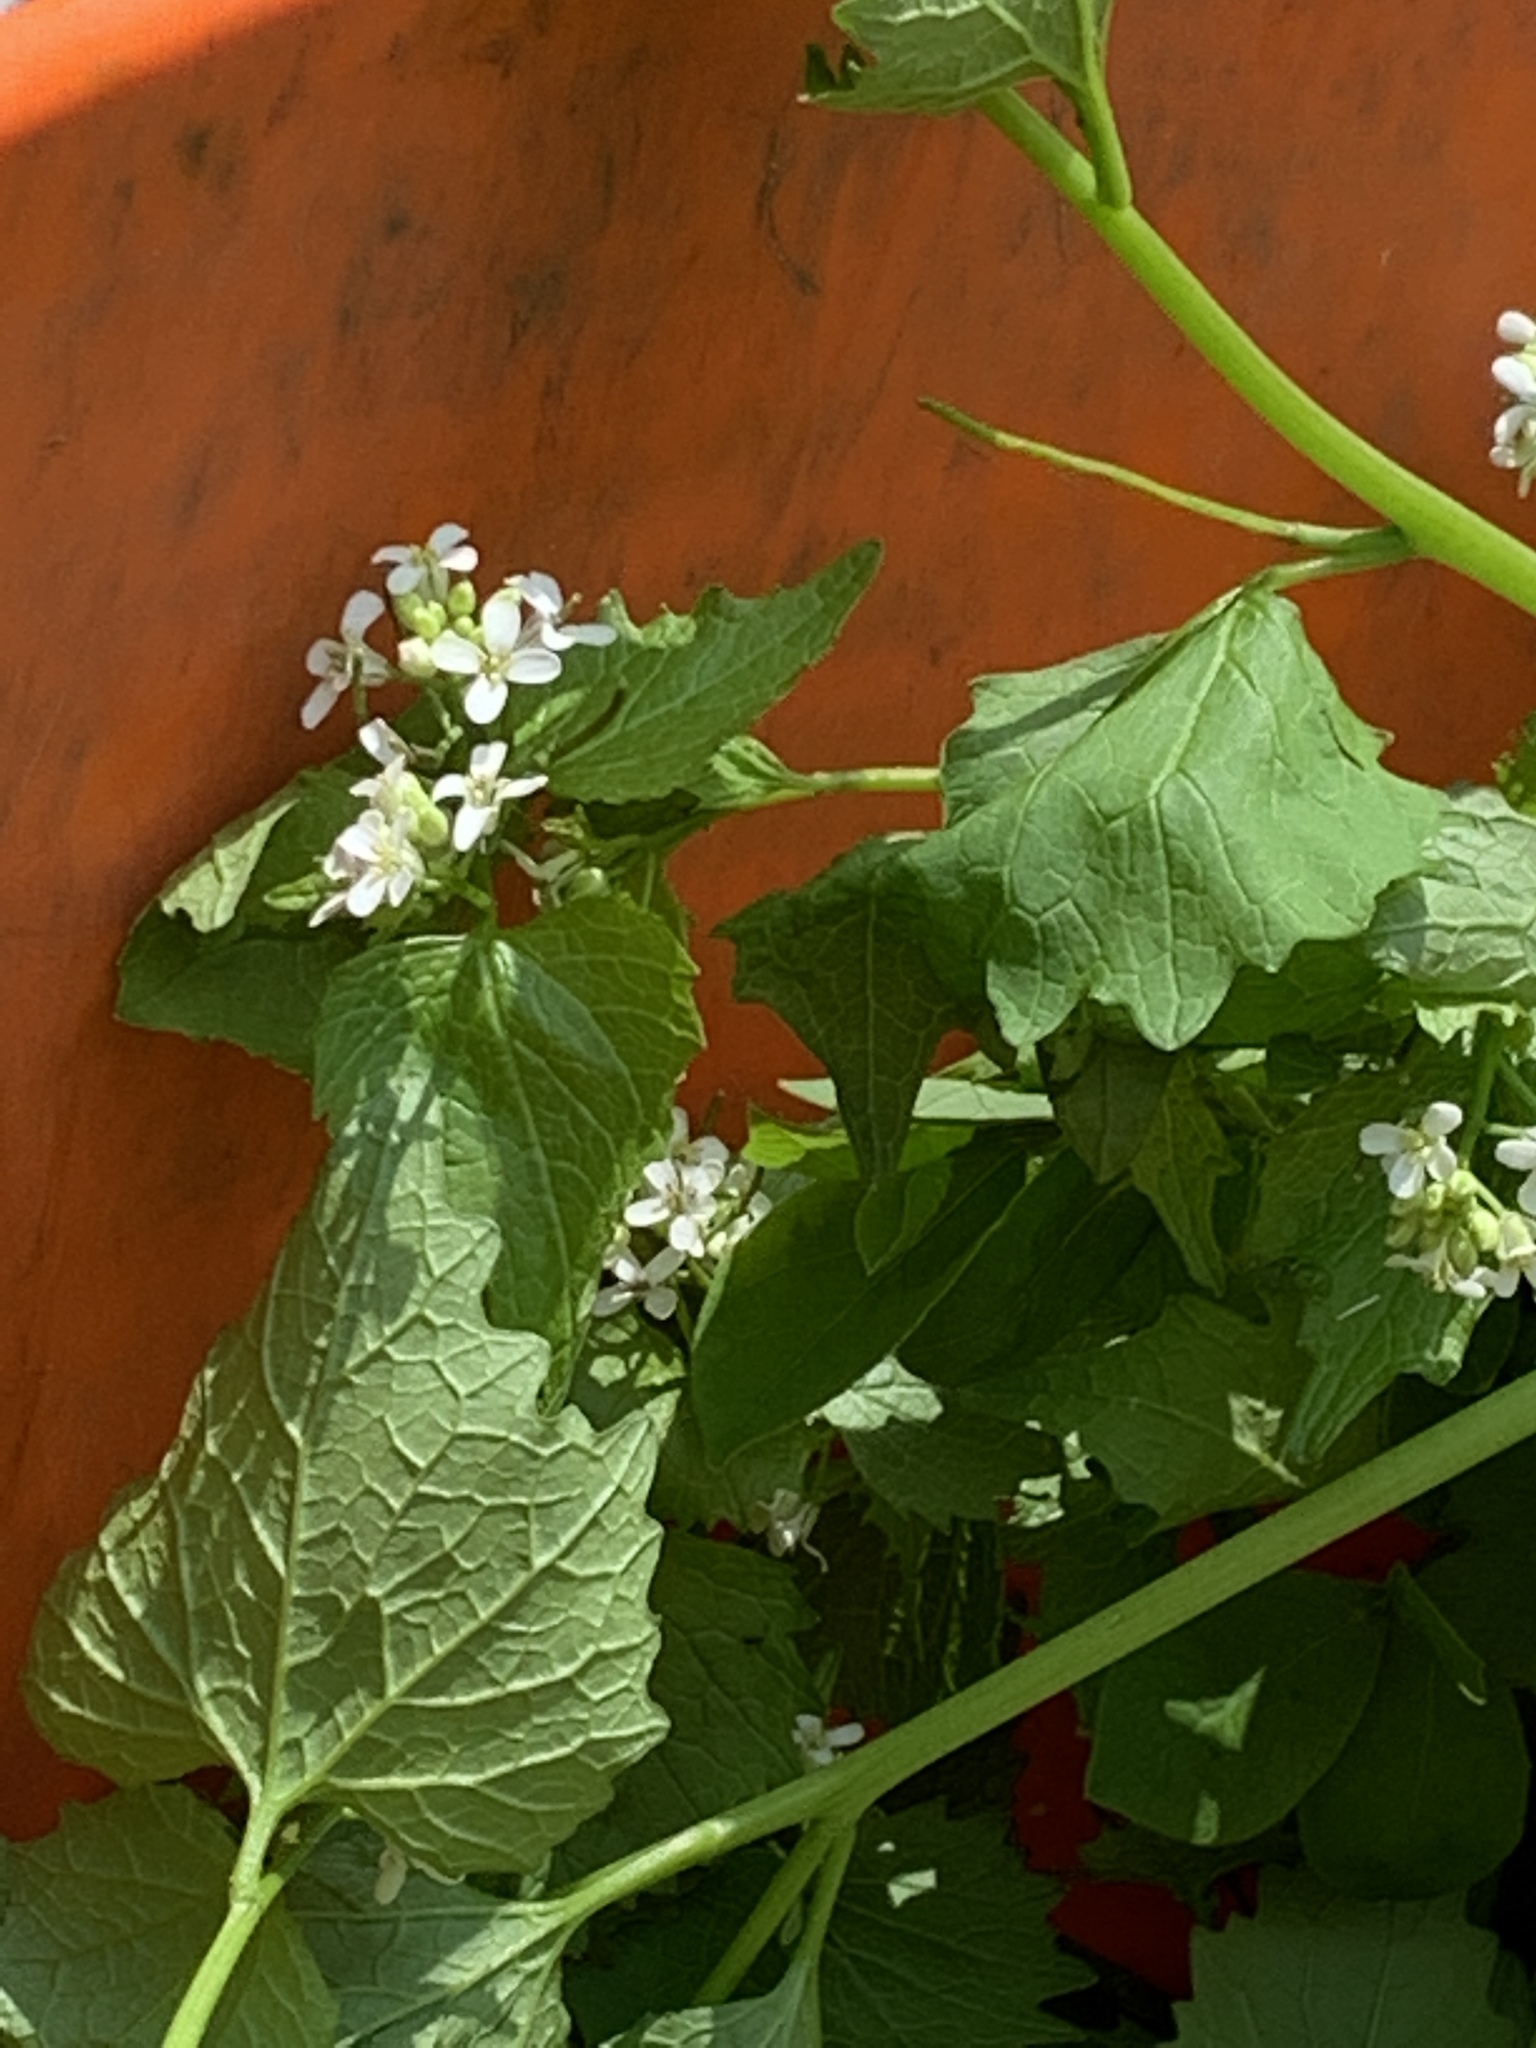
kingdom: Plantae
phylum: Tracheophyta
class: Magnoliopsida
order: Brassicales
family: Brassicaceae
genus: Alliaria
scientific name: Alliaria petiolata
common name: Garlic mustard
